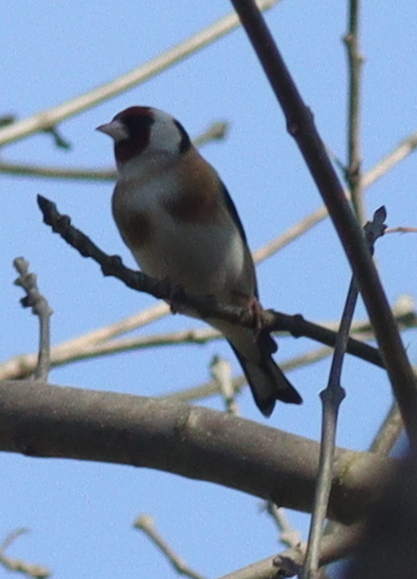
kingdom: Animalia
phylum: Chordata
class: Aves
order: Passeriformes
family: Fringillidae
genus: Carduelis
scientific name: Carduelis carduelis
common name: European goldfinch
